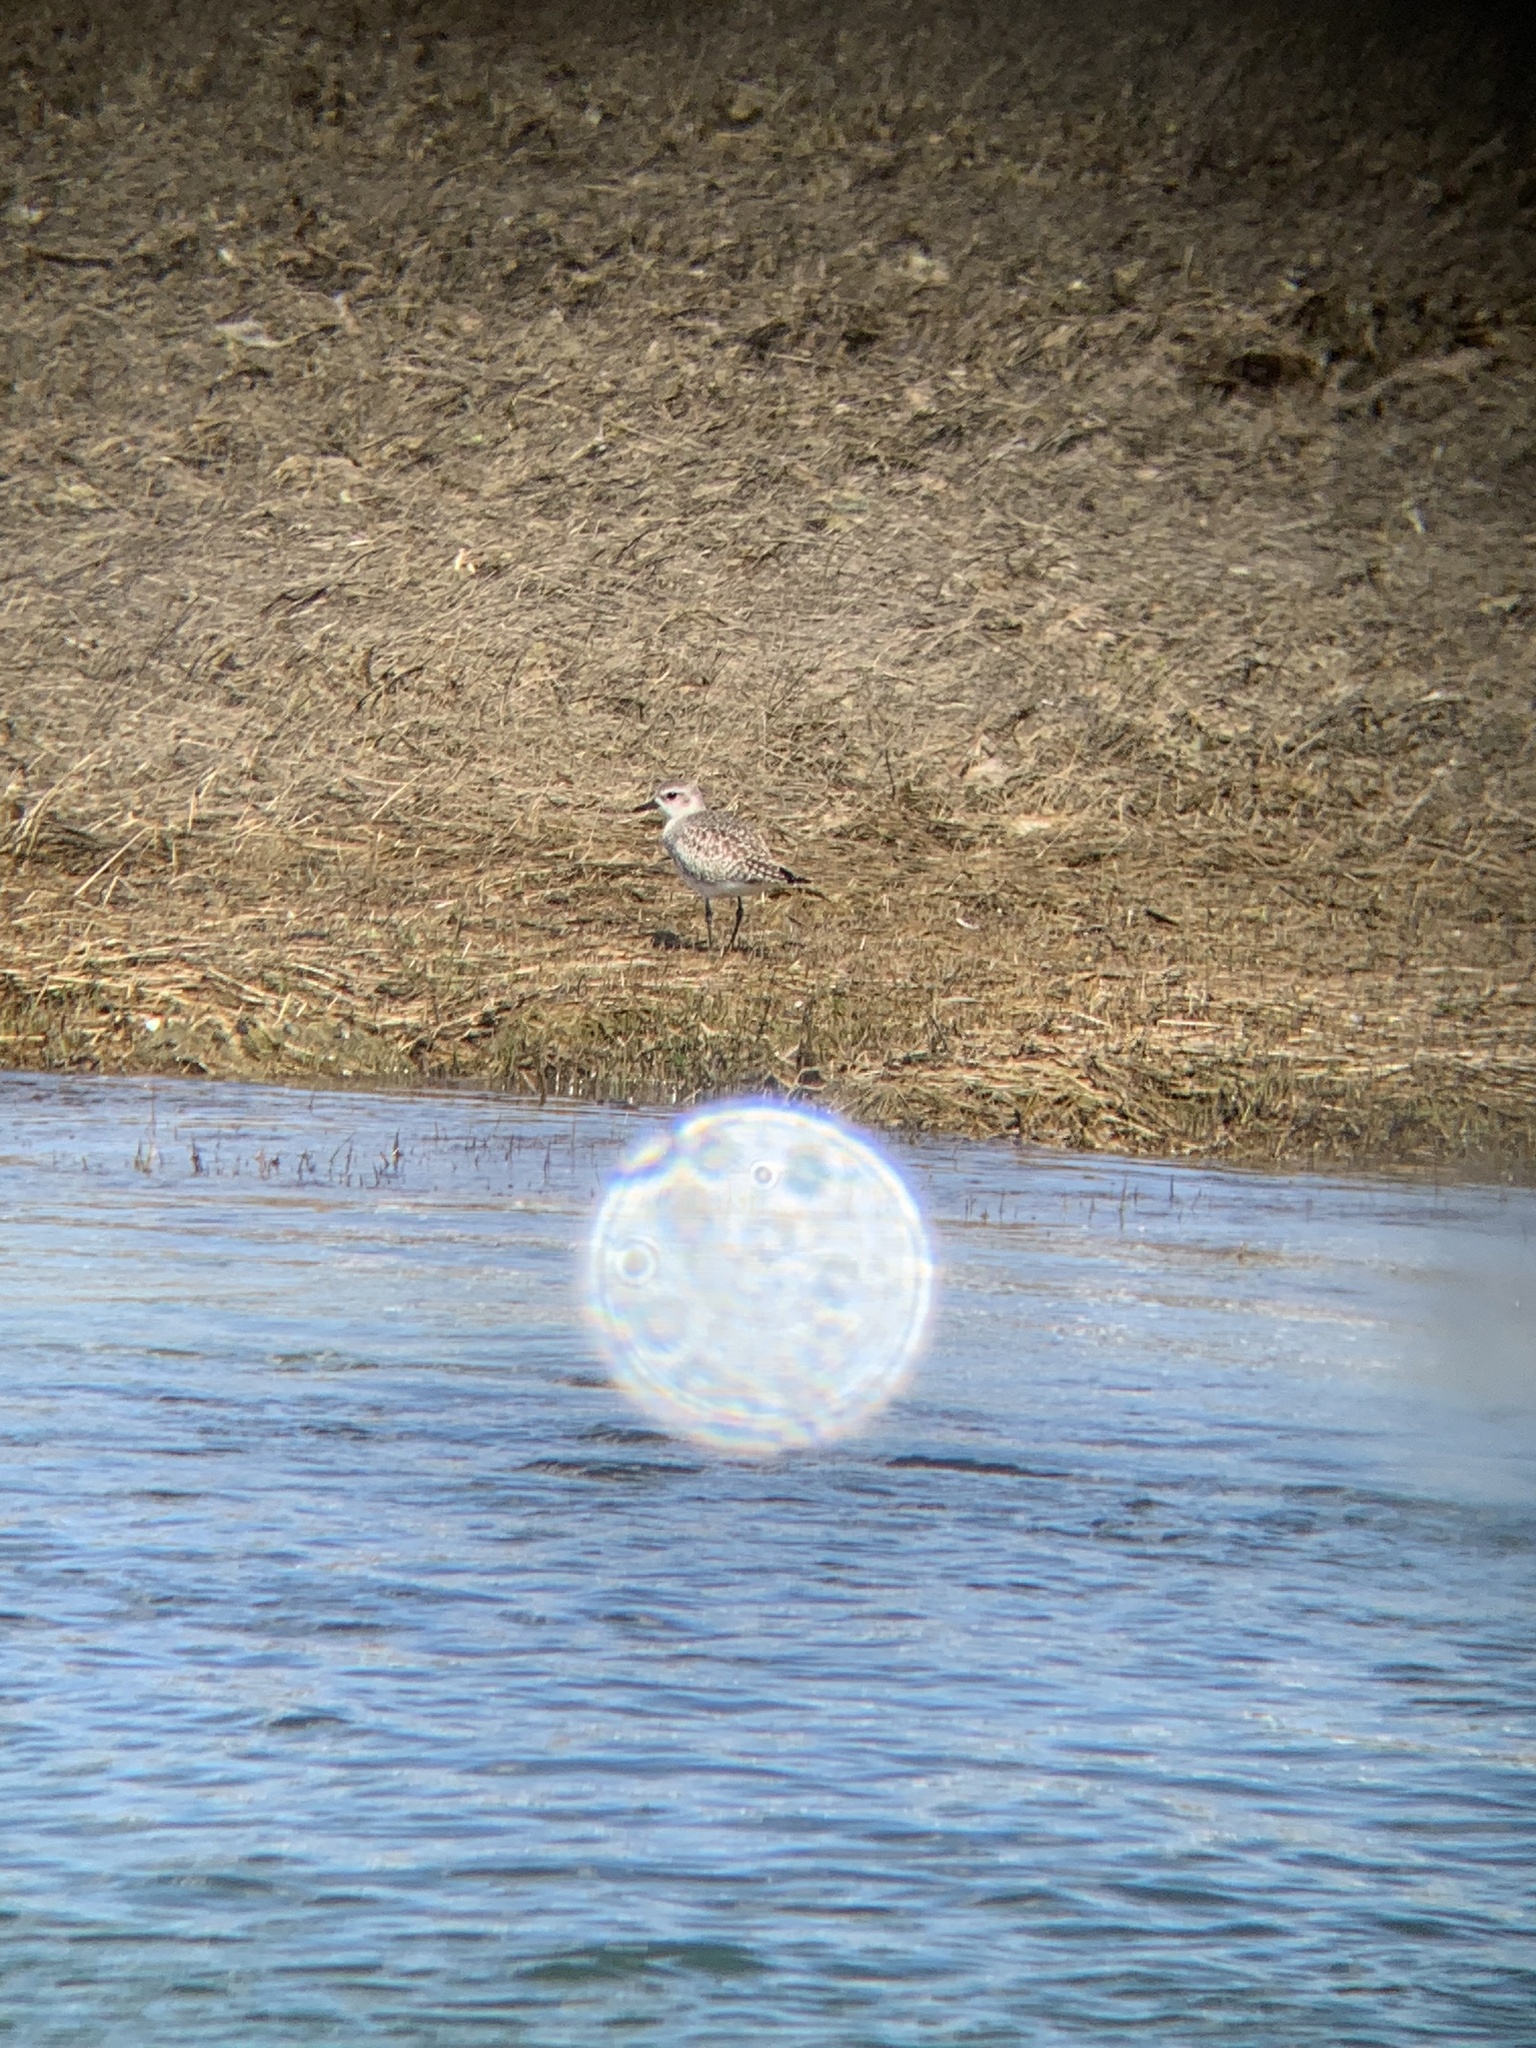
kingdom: Animalia
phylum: Chordata
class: Aves
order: Charadriiformes
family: Charadriidae
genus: Pluvialis
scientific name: Pluvialis squatarola
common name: Grey plover
